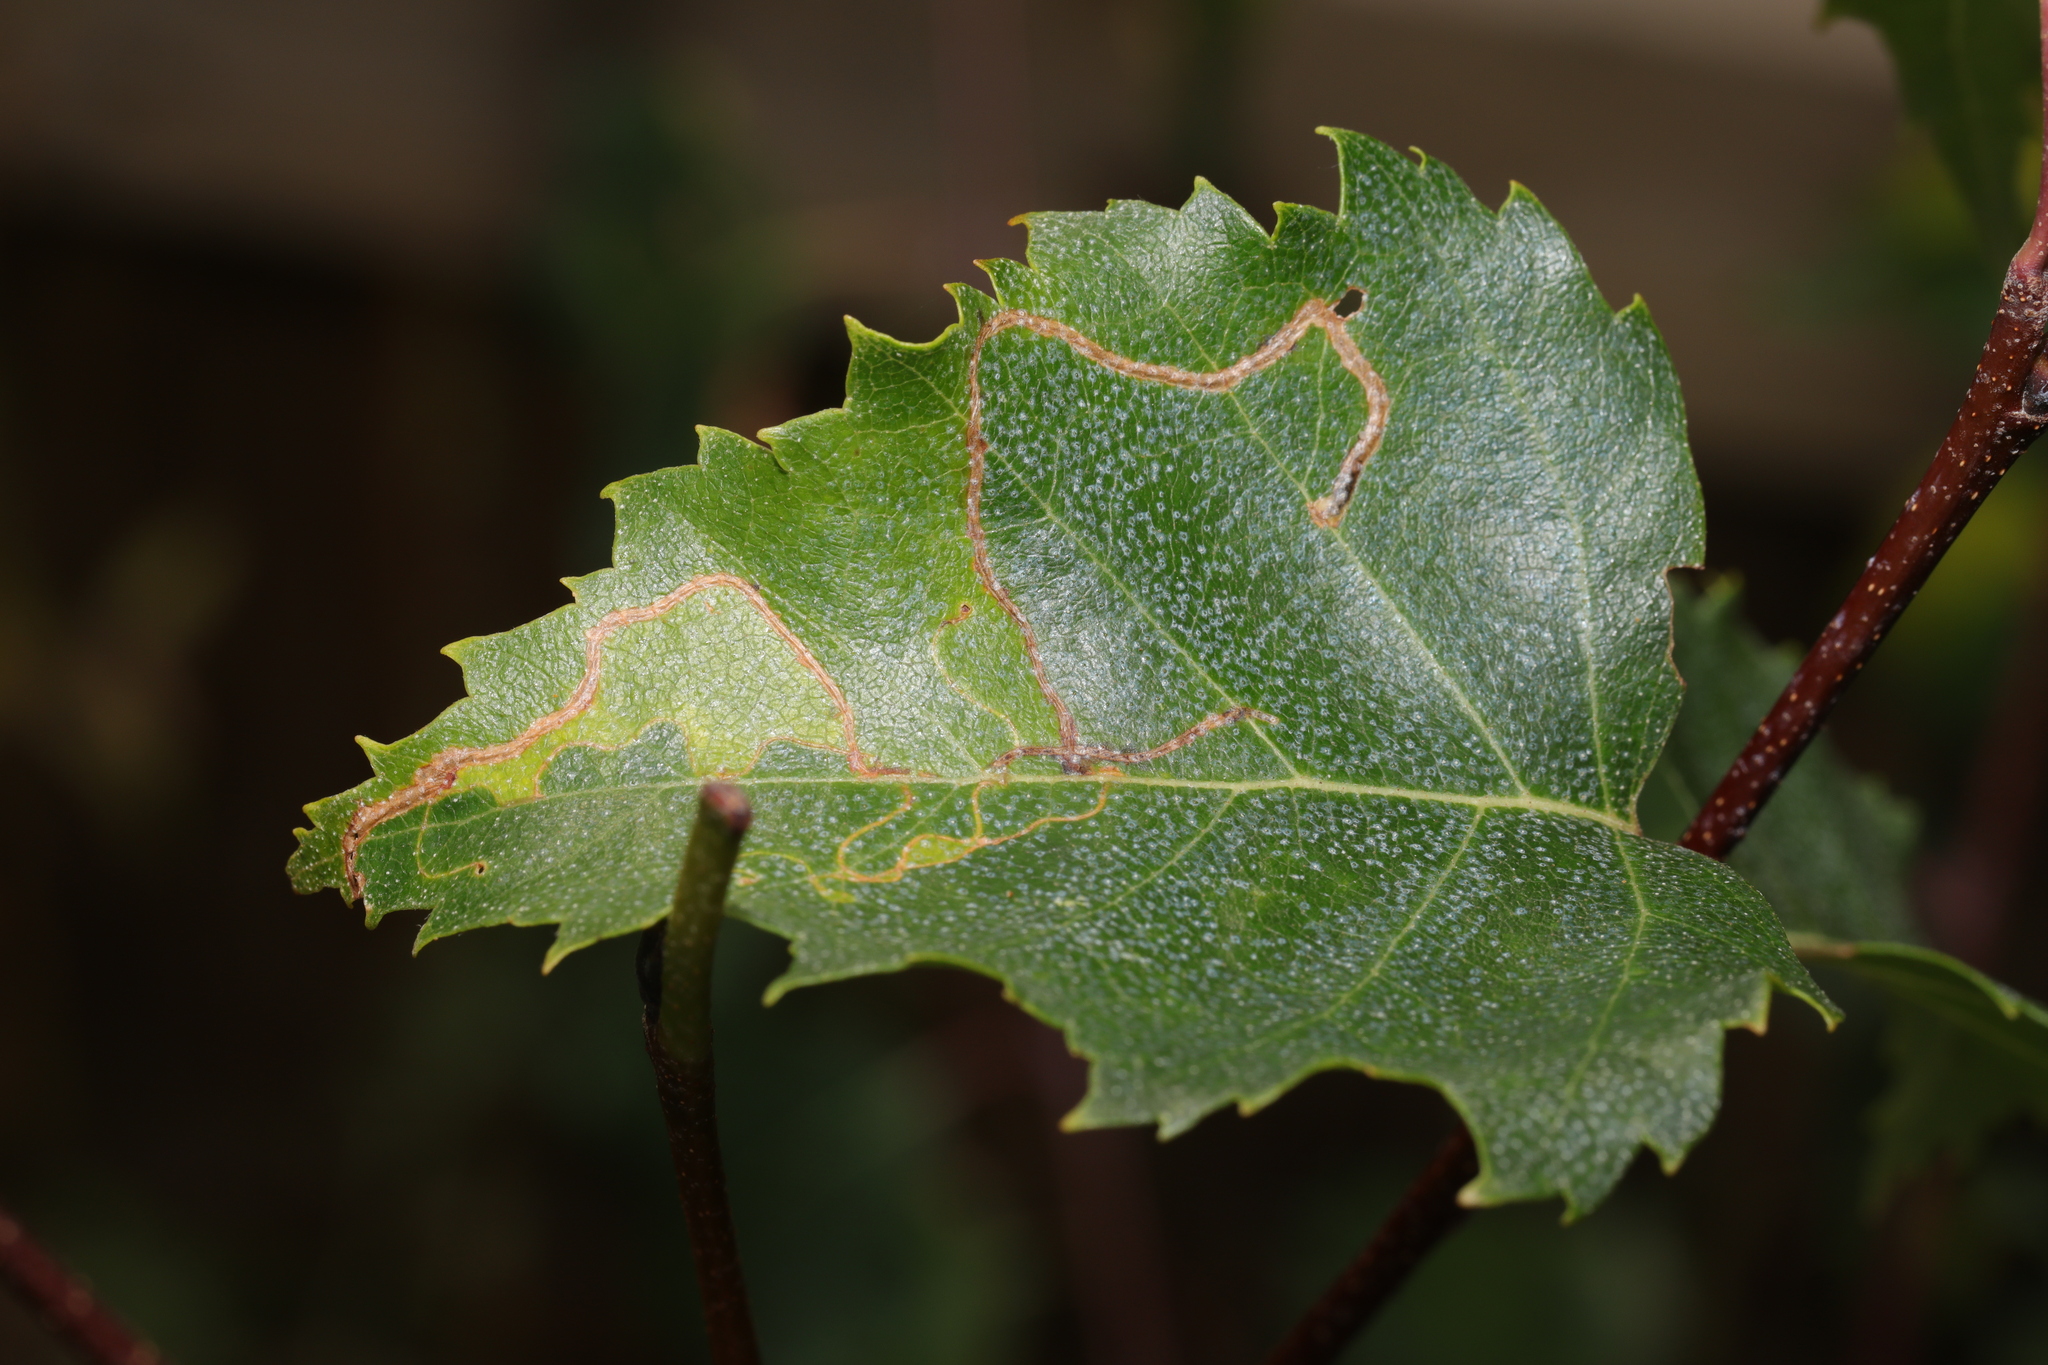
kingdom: Animalia
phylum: Arthropoda
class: Insecta
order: Lepidoptera
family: Lyonetiidae
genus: Lyonetia
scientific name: Lyonetia clerkella
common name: Apple leaf miner
